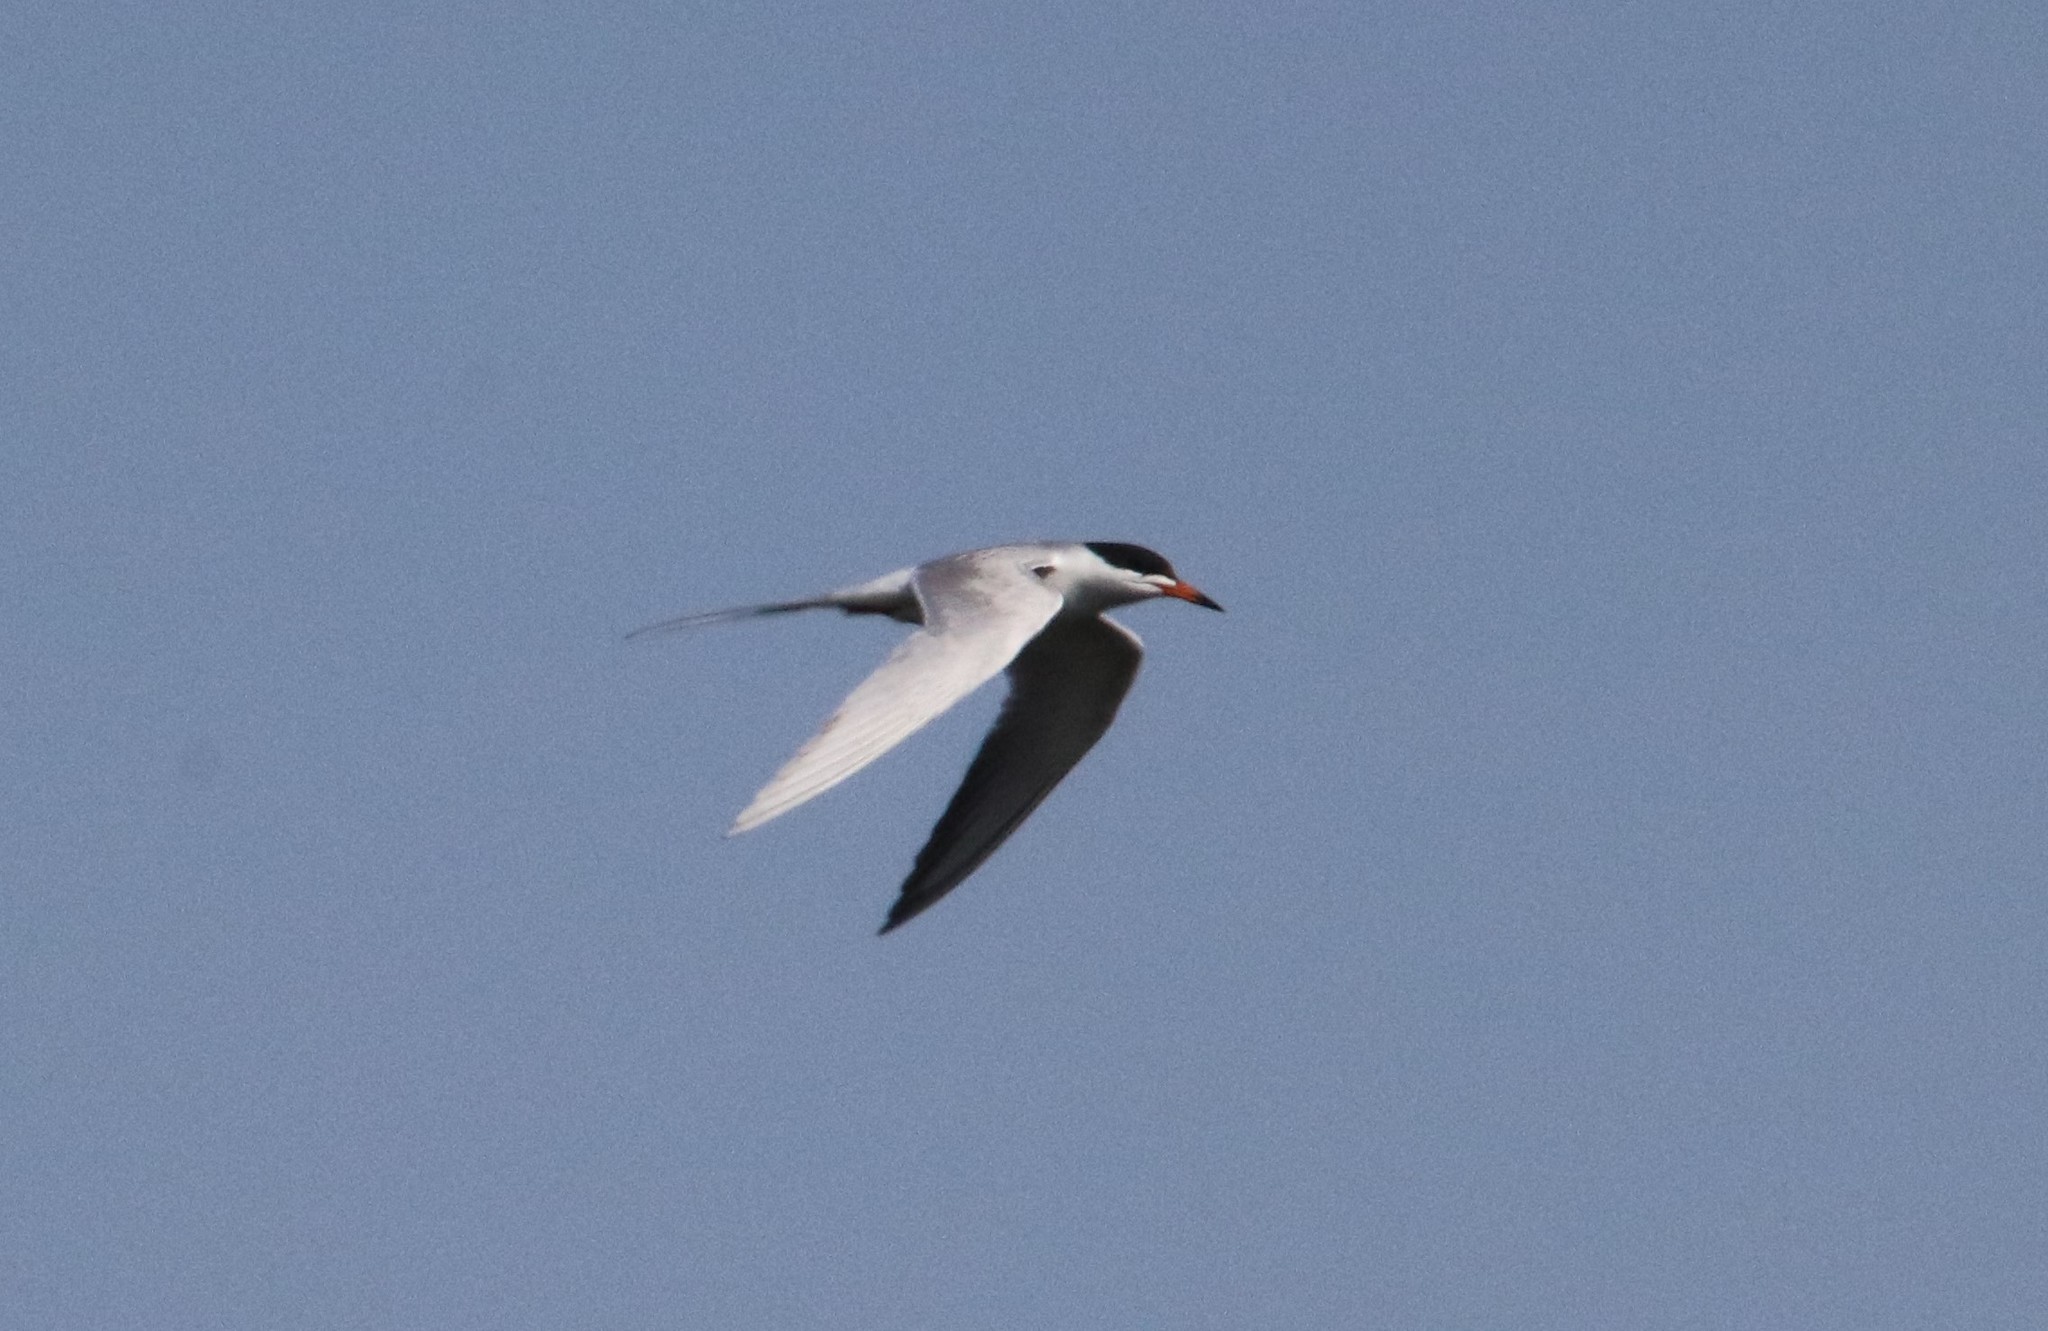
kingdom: Animalia
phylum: Chordata
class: Aves
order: Charadriiformes
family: Laridae
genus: Sterna
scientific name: Sterna forsteri
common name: Forster's tern
